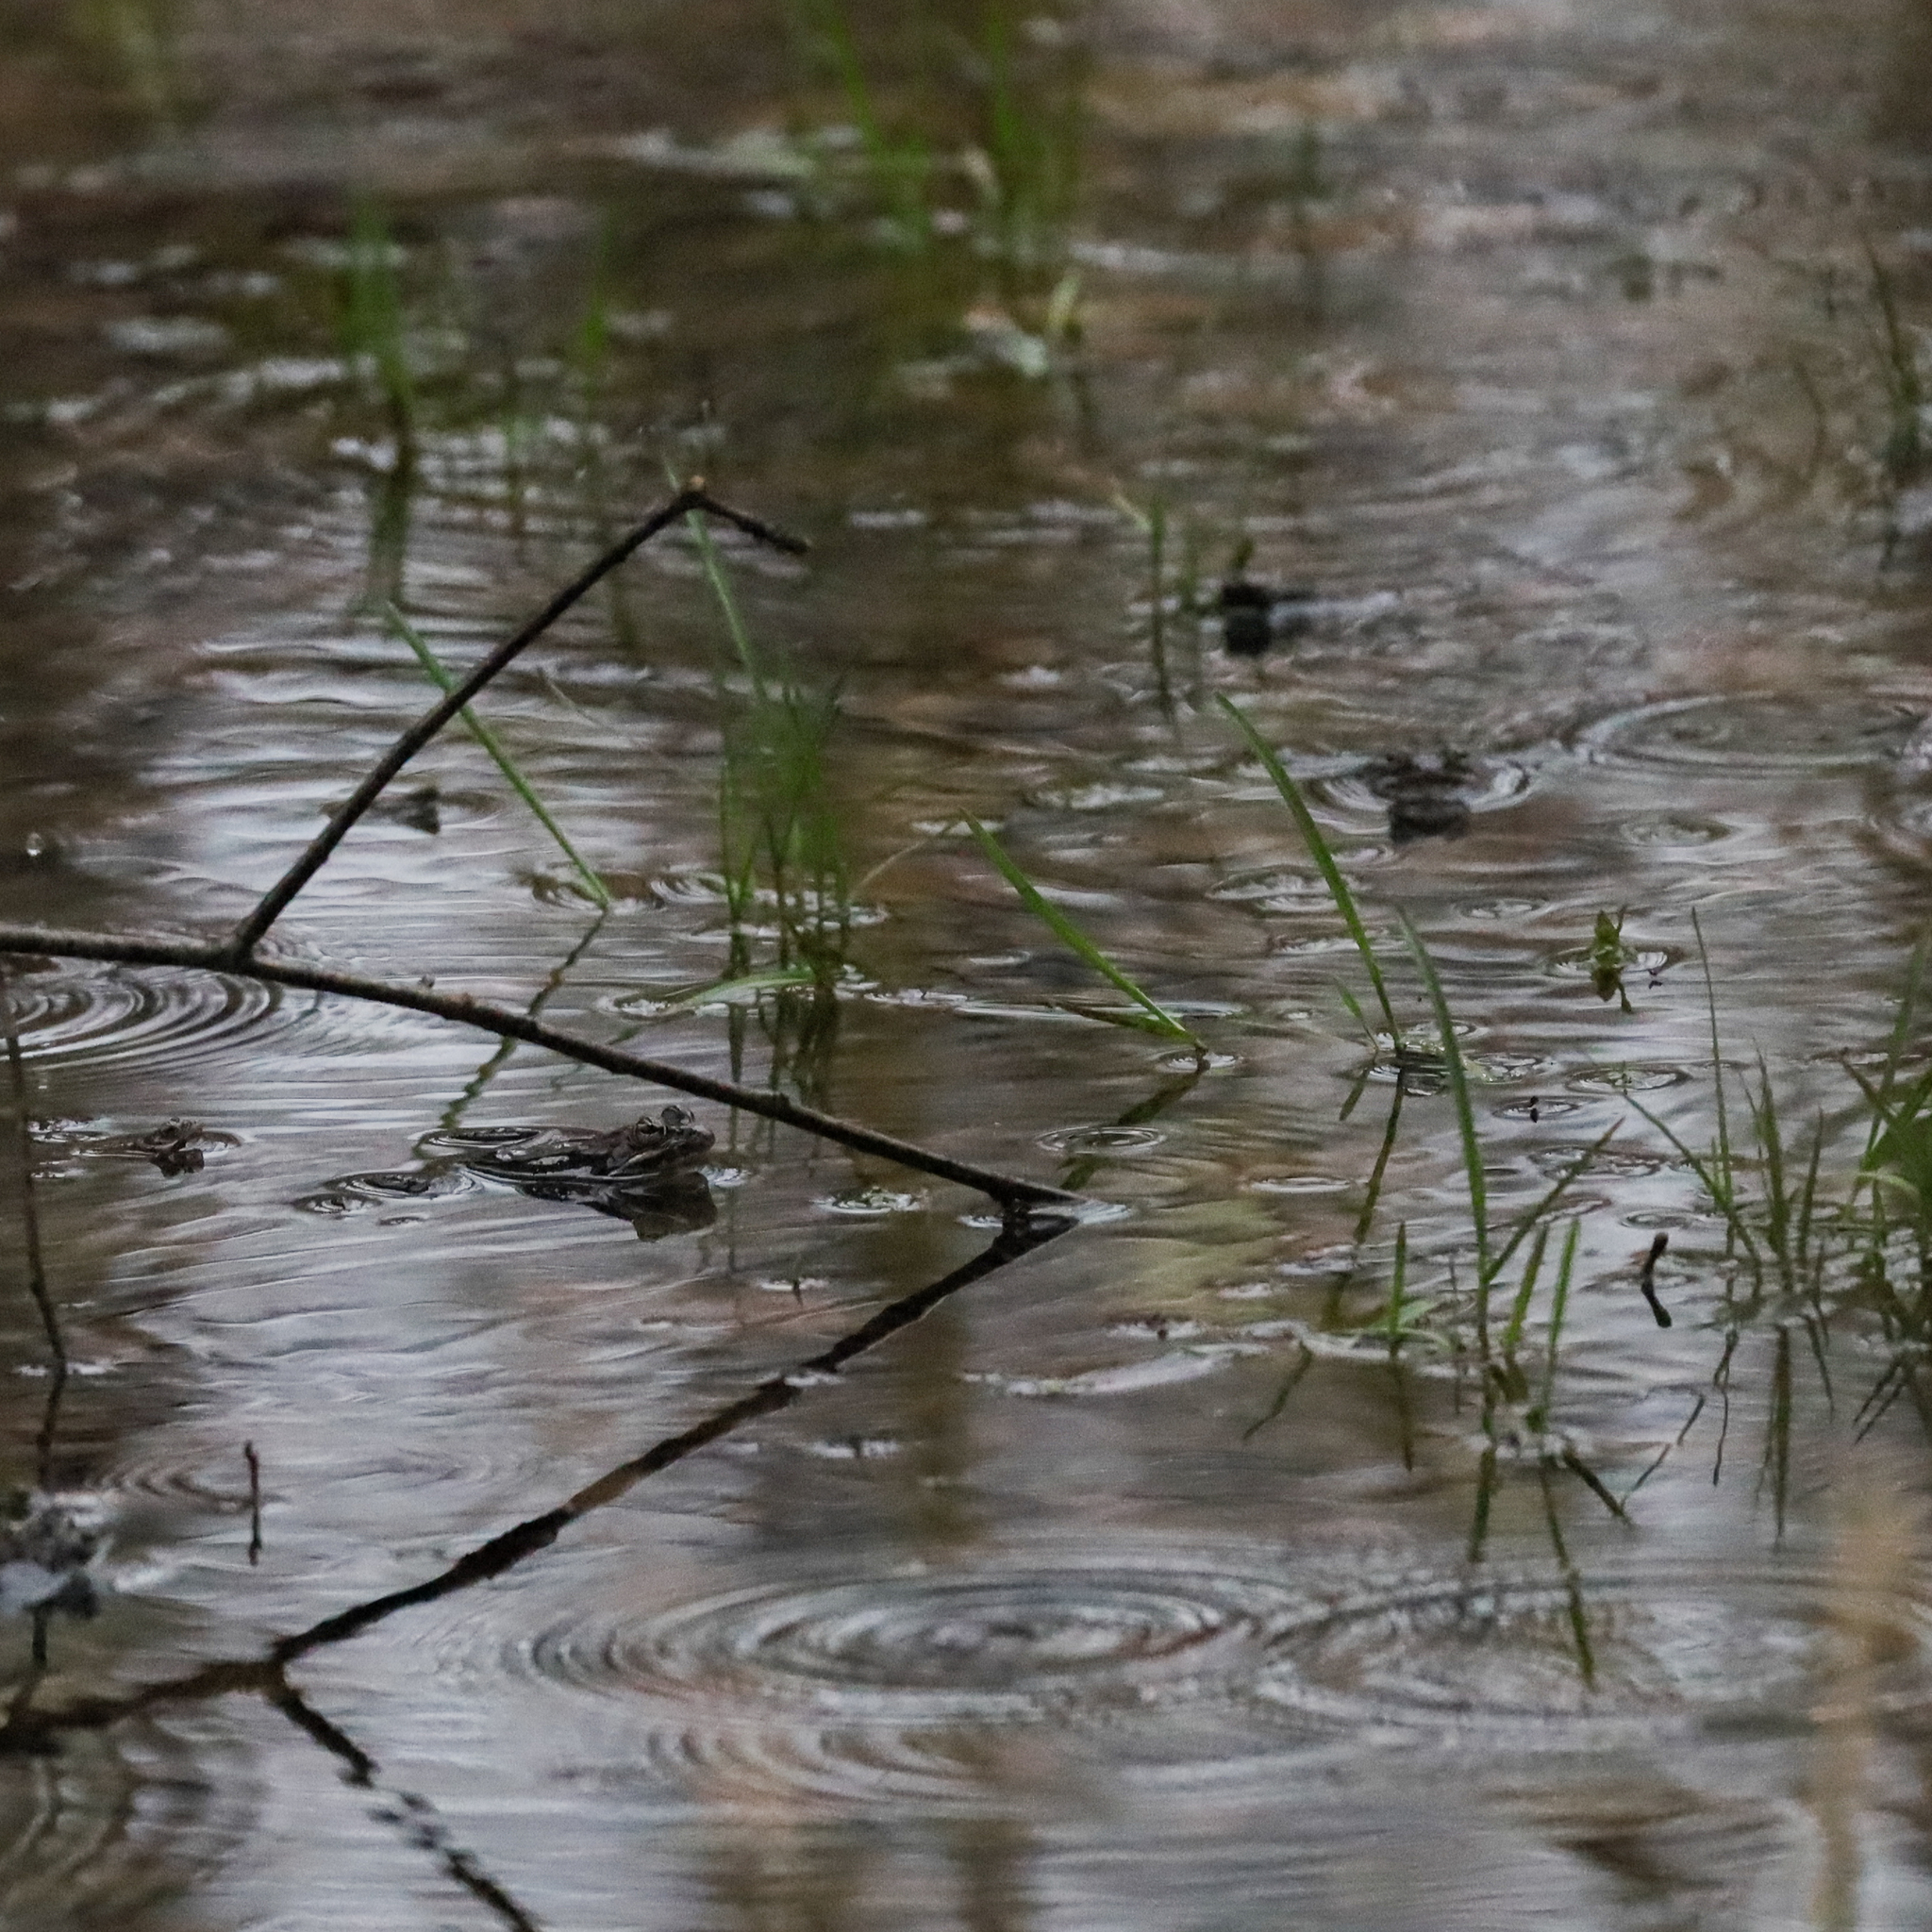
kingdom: Animalia
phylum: Chordata
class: Amphibia
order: Anura
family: Ranidae
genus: Lithobates
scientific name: Lithobates sylvaticus
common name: Wood frog
